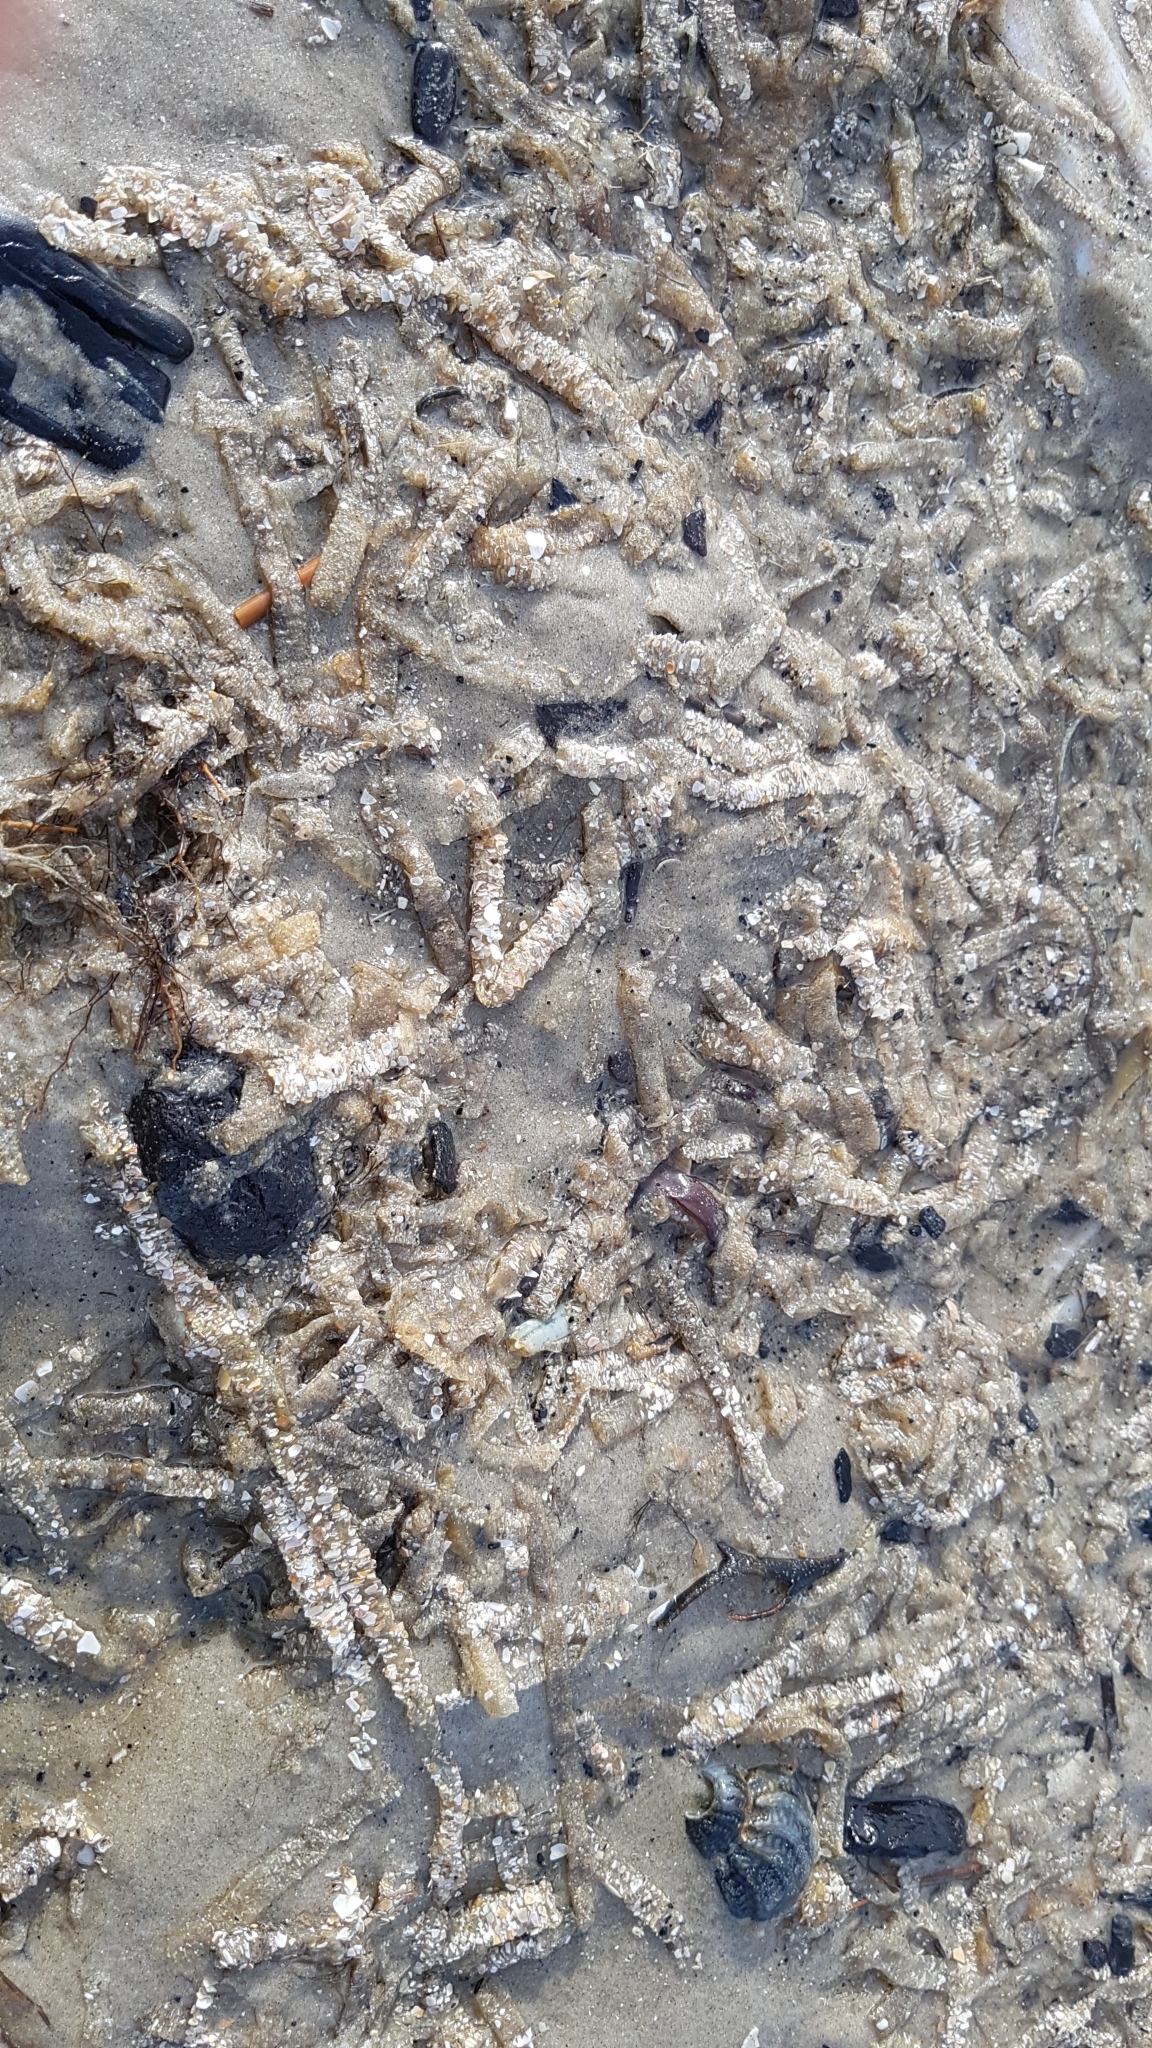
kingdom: Animalia
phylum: Annelida
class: Polychaeta
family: Terebellidae
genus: Lanice
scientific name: Lanice conchilega
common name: Sand mason
